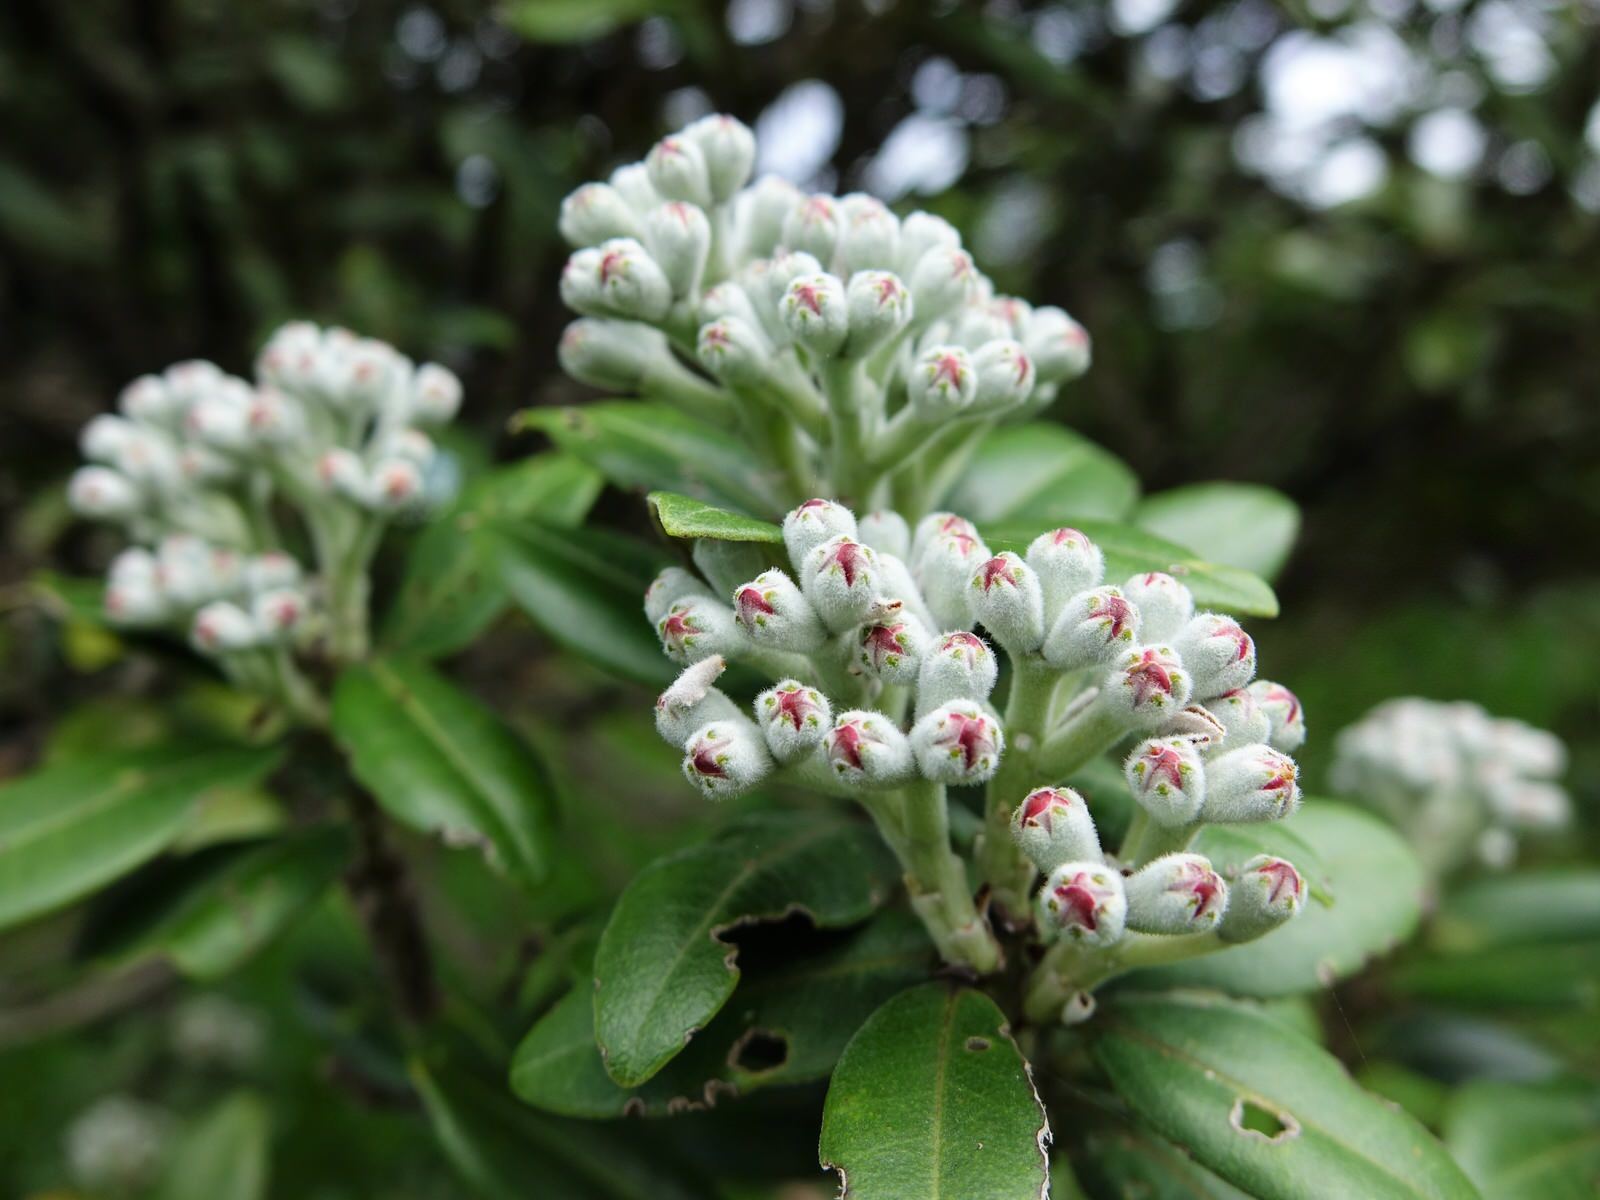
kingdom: Plantae
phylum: Tracheophyta
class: Magnoliopsida
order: Myrtales
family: Myrtaceae
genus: Metrosideros
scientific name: Metrosideros excelsa
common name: New zealand christmastree
